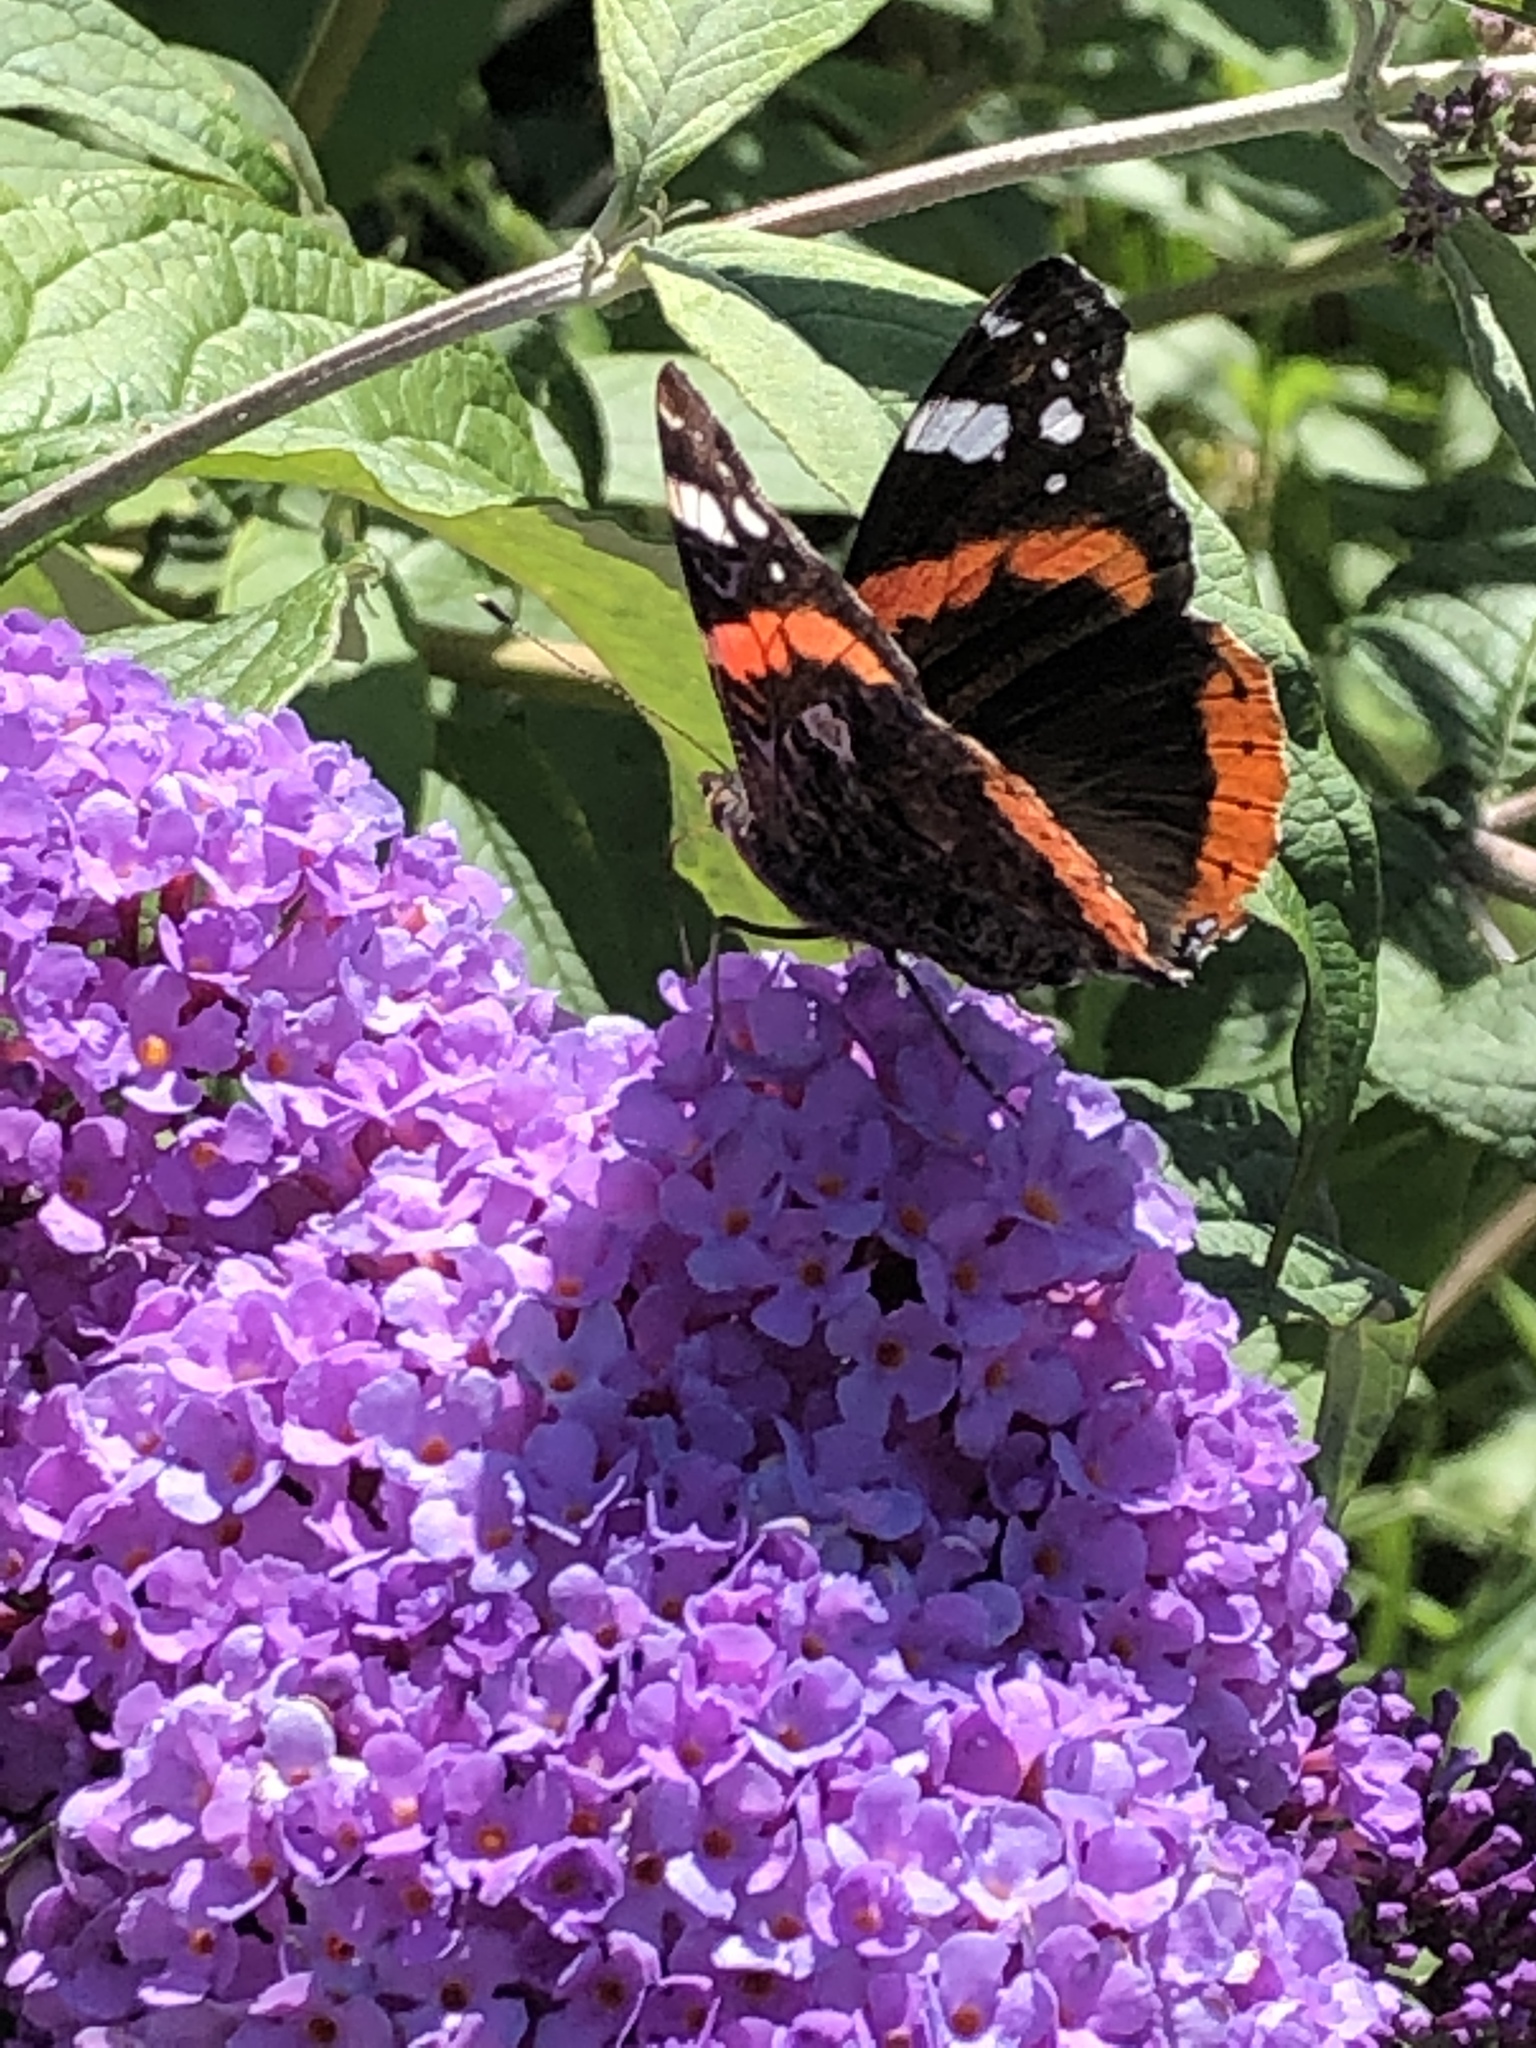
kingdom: Animalia
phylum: Arthropoda
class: Insecta
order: Lepidoptera
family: Nymphalidae
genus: Vanessa
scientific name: Vanessa atalanta
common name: Red admiral
